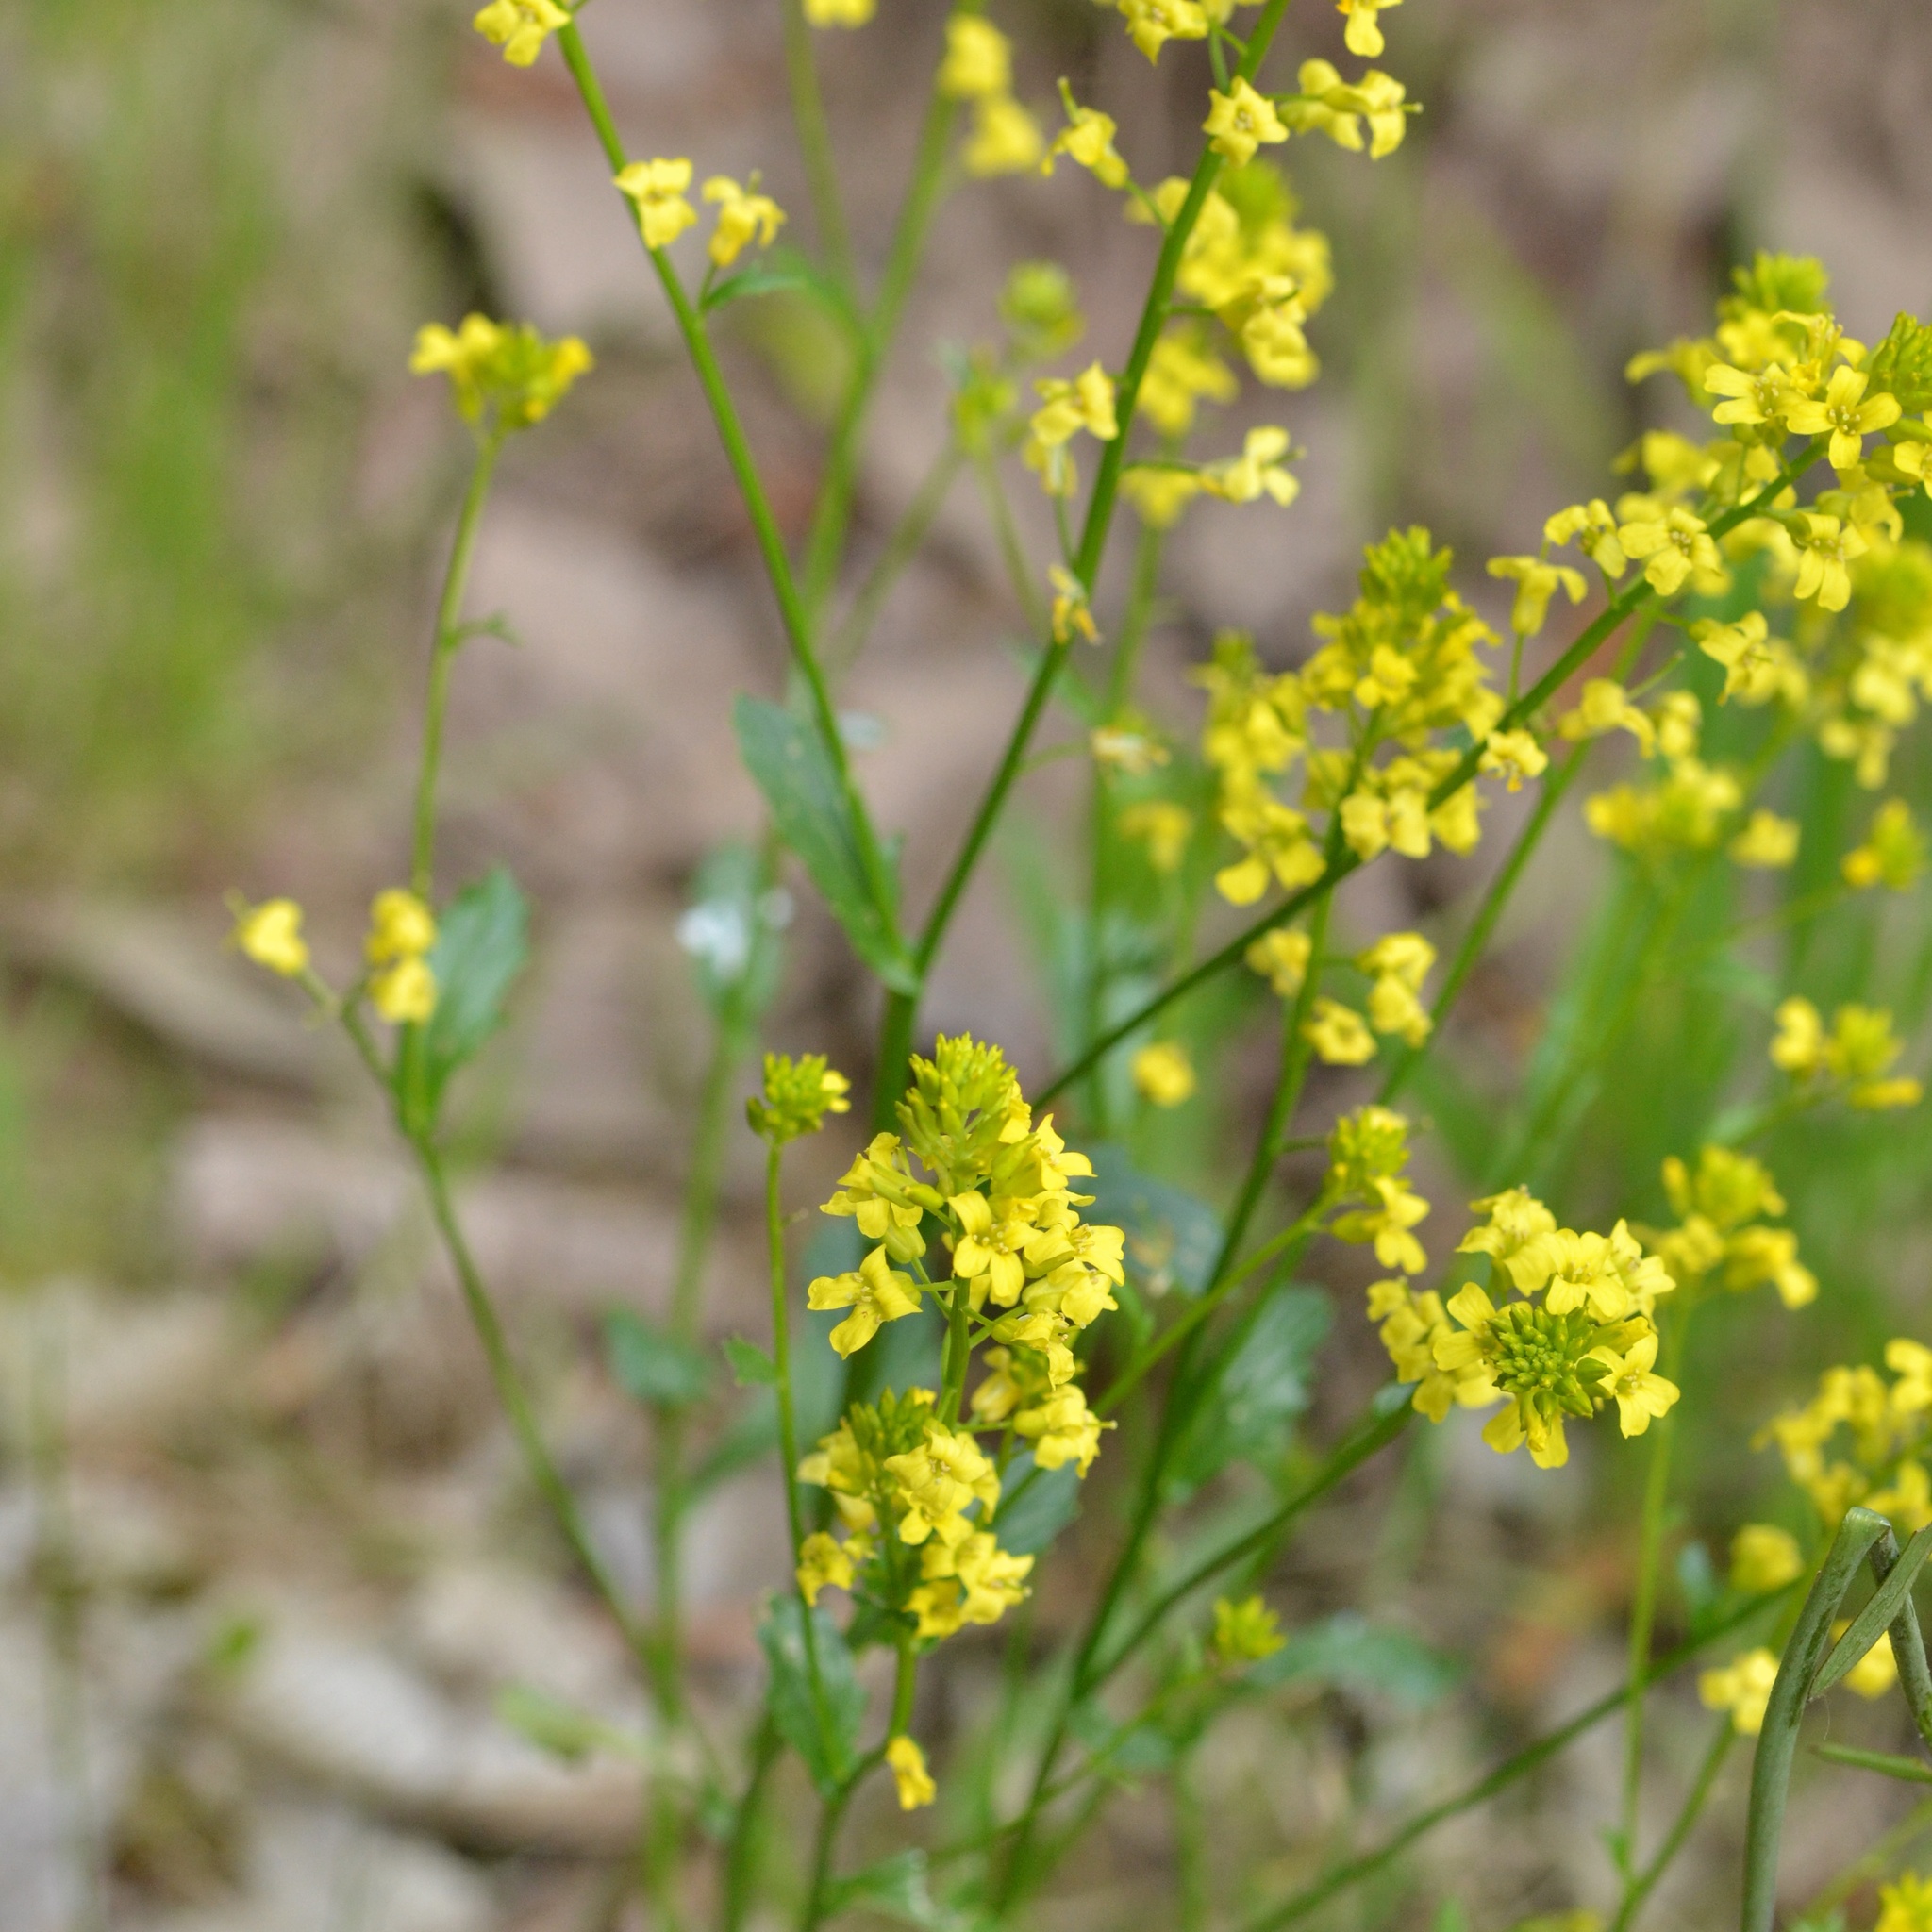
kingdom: Plantae
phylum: Tracheophyta
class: Magnoliopsida
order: Brassicales
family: Brassicaceae
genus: Barbarea
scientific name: Barbarea vulgaris
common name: Cressy-greens
